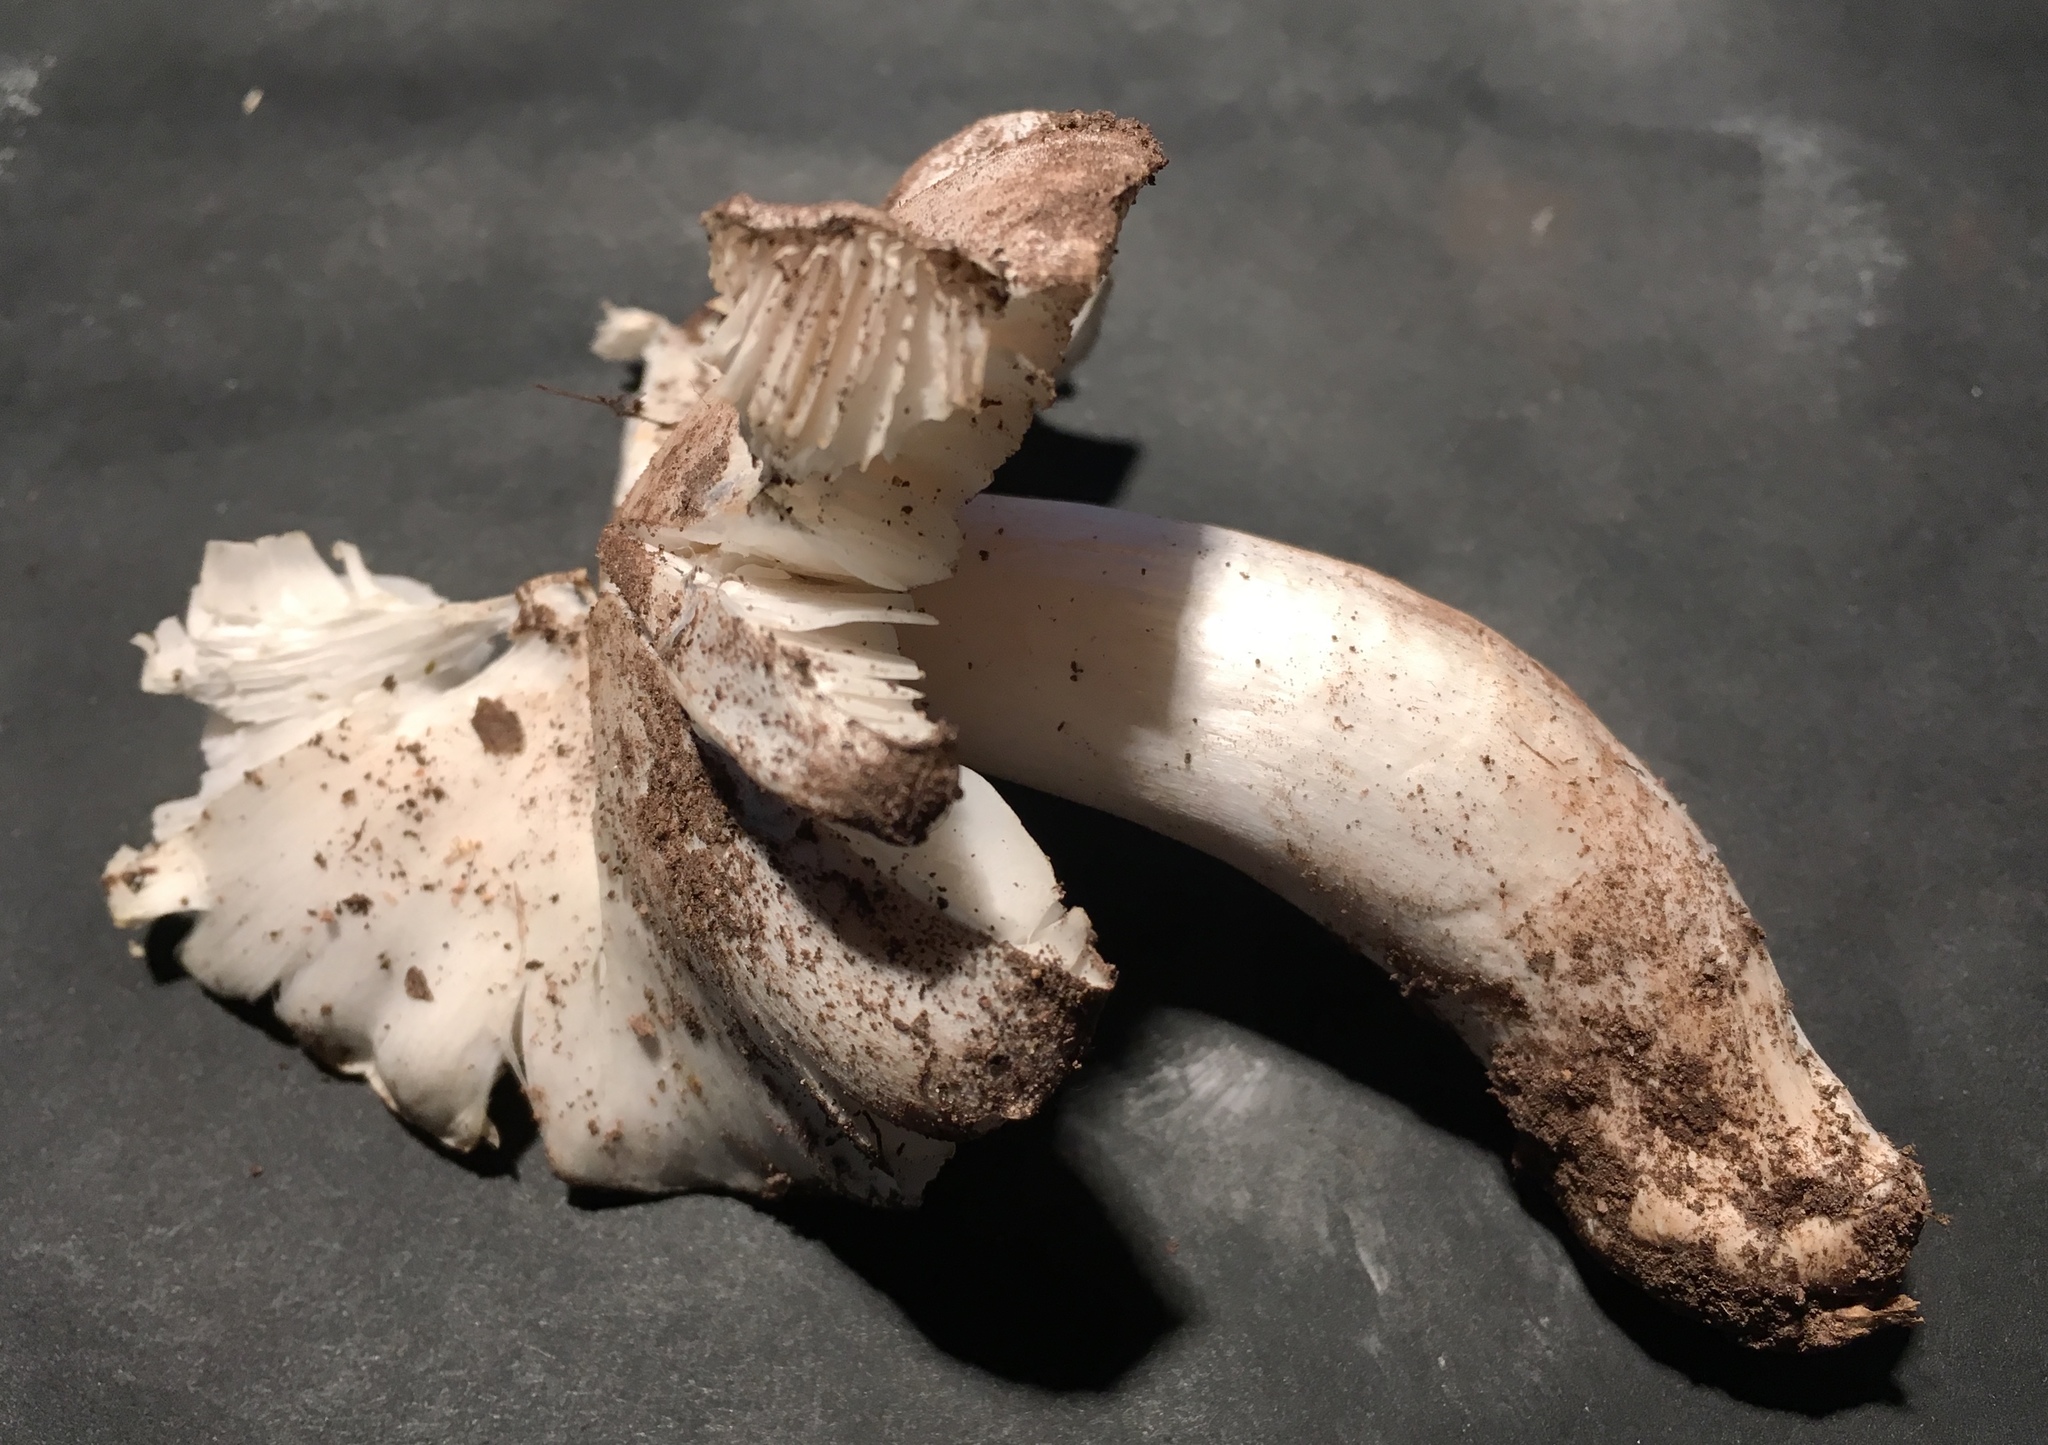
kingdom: Fungi
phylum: Basidiomycota
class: Agaricomycetes
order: Agaricales
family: Tricholomataceae
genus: Tricholoma
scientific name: Tricholoma columbetta
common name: Blue spot knight
